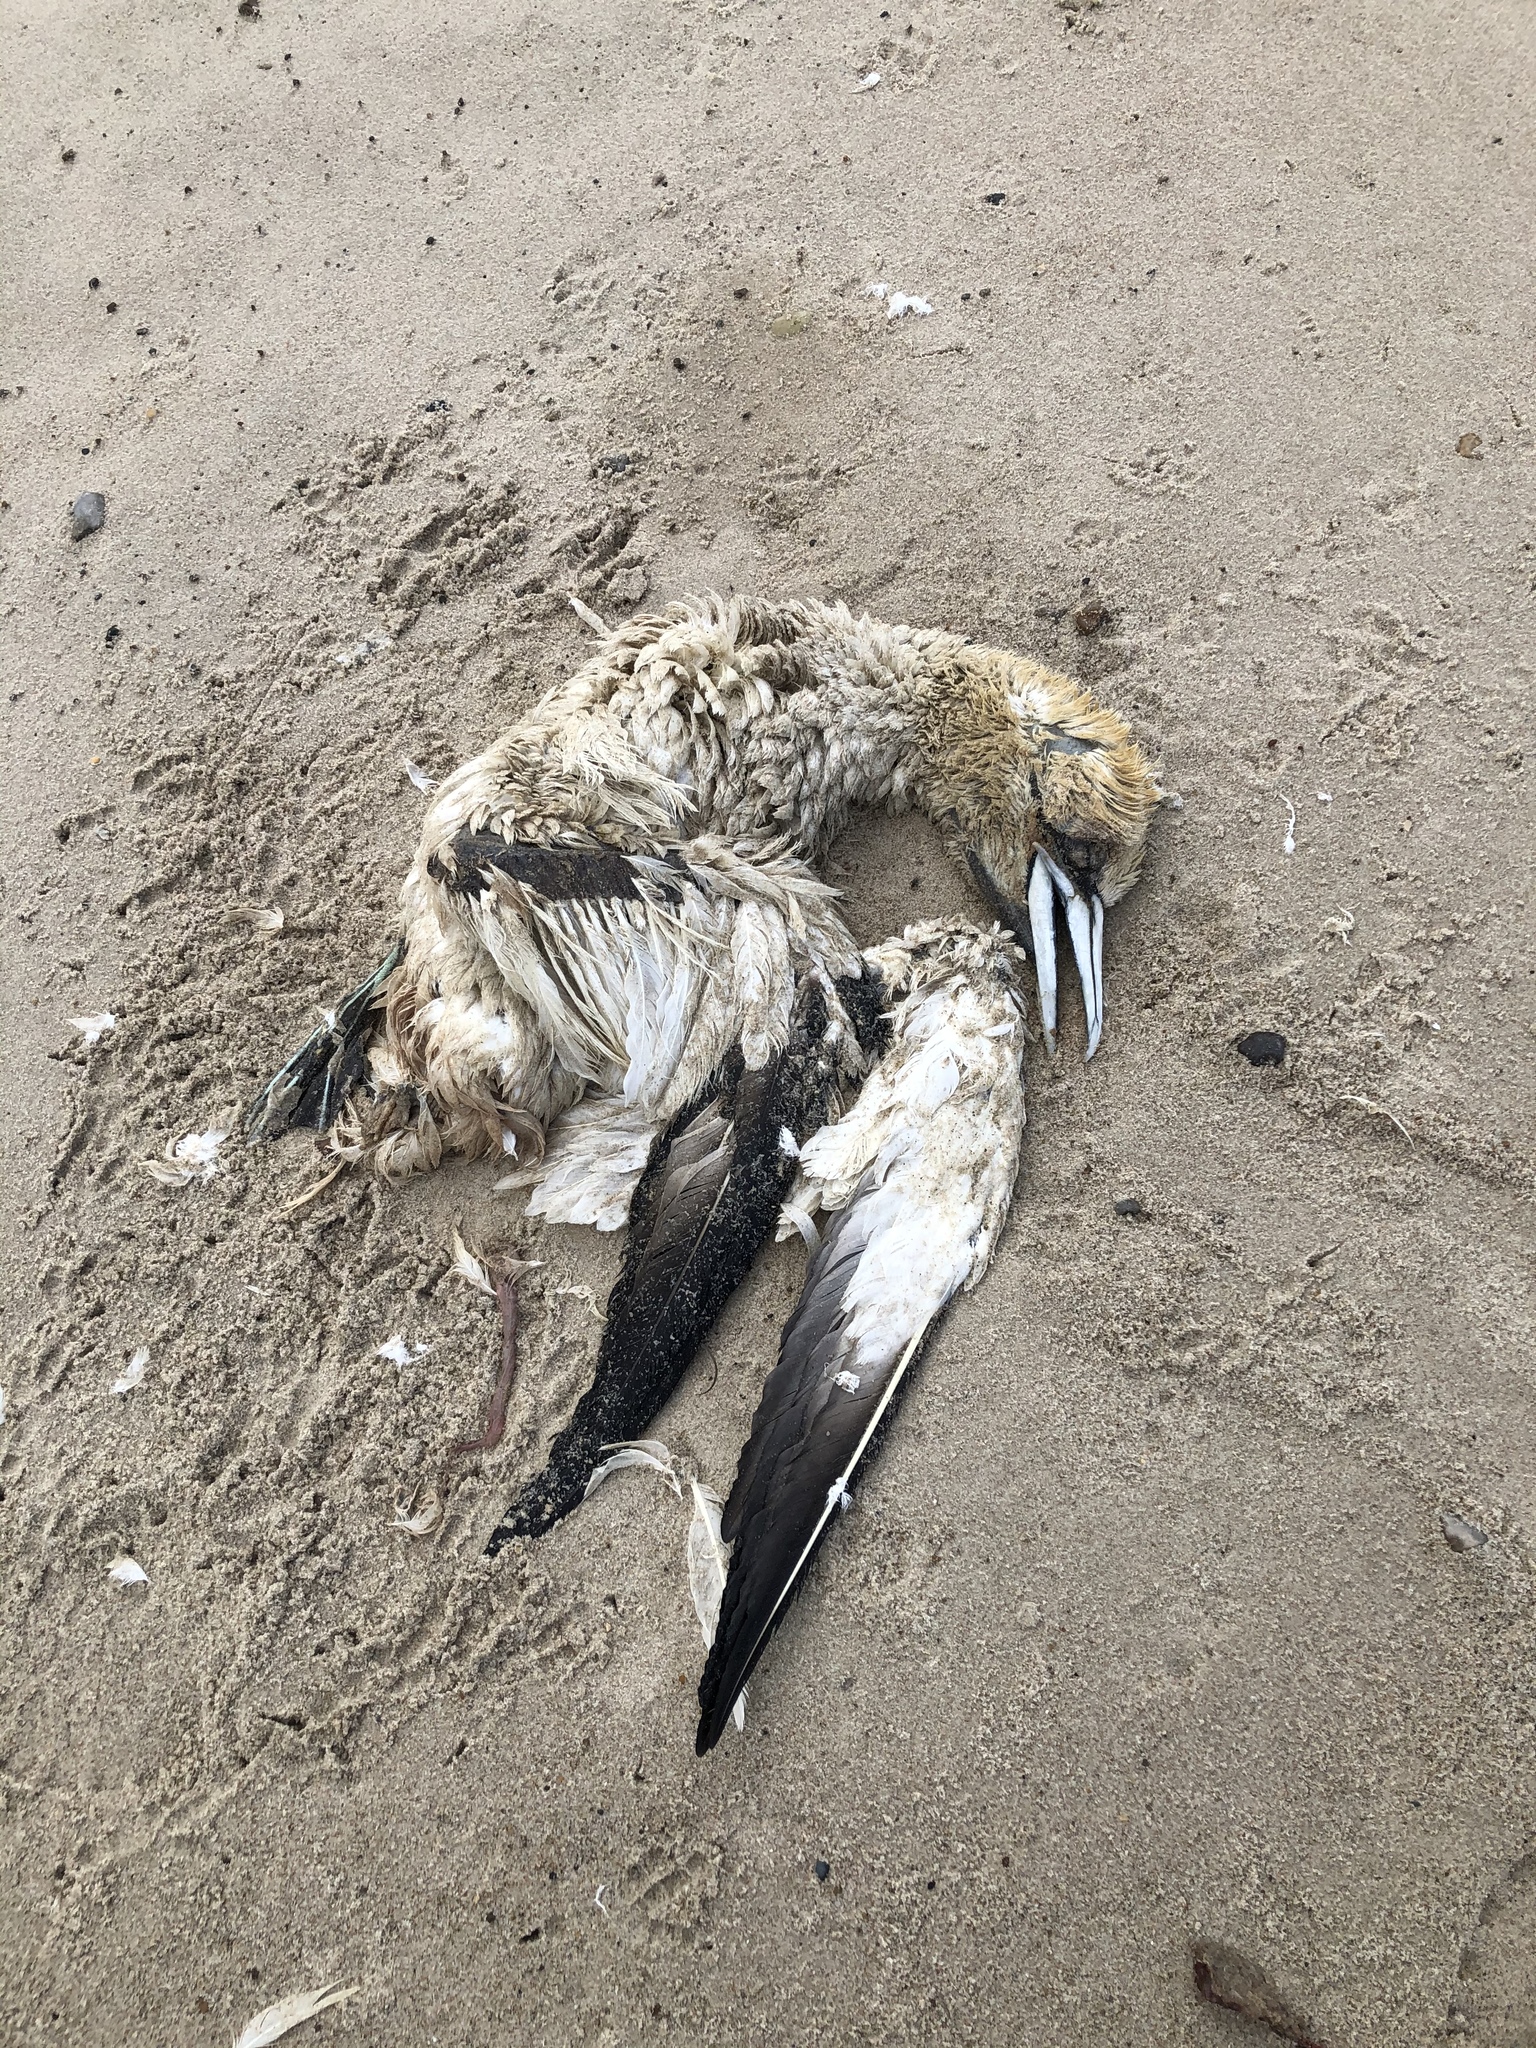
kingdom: Animalia
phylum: Chordata
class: Aves
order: Suliformes
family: Sulidae
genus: Morus
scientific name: Morus bassanus
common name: Northern gannet
